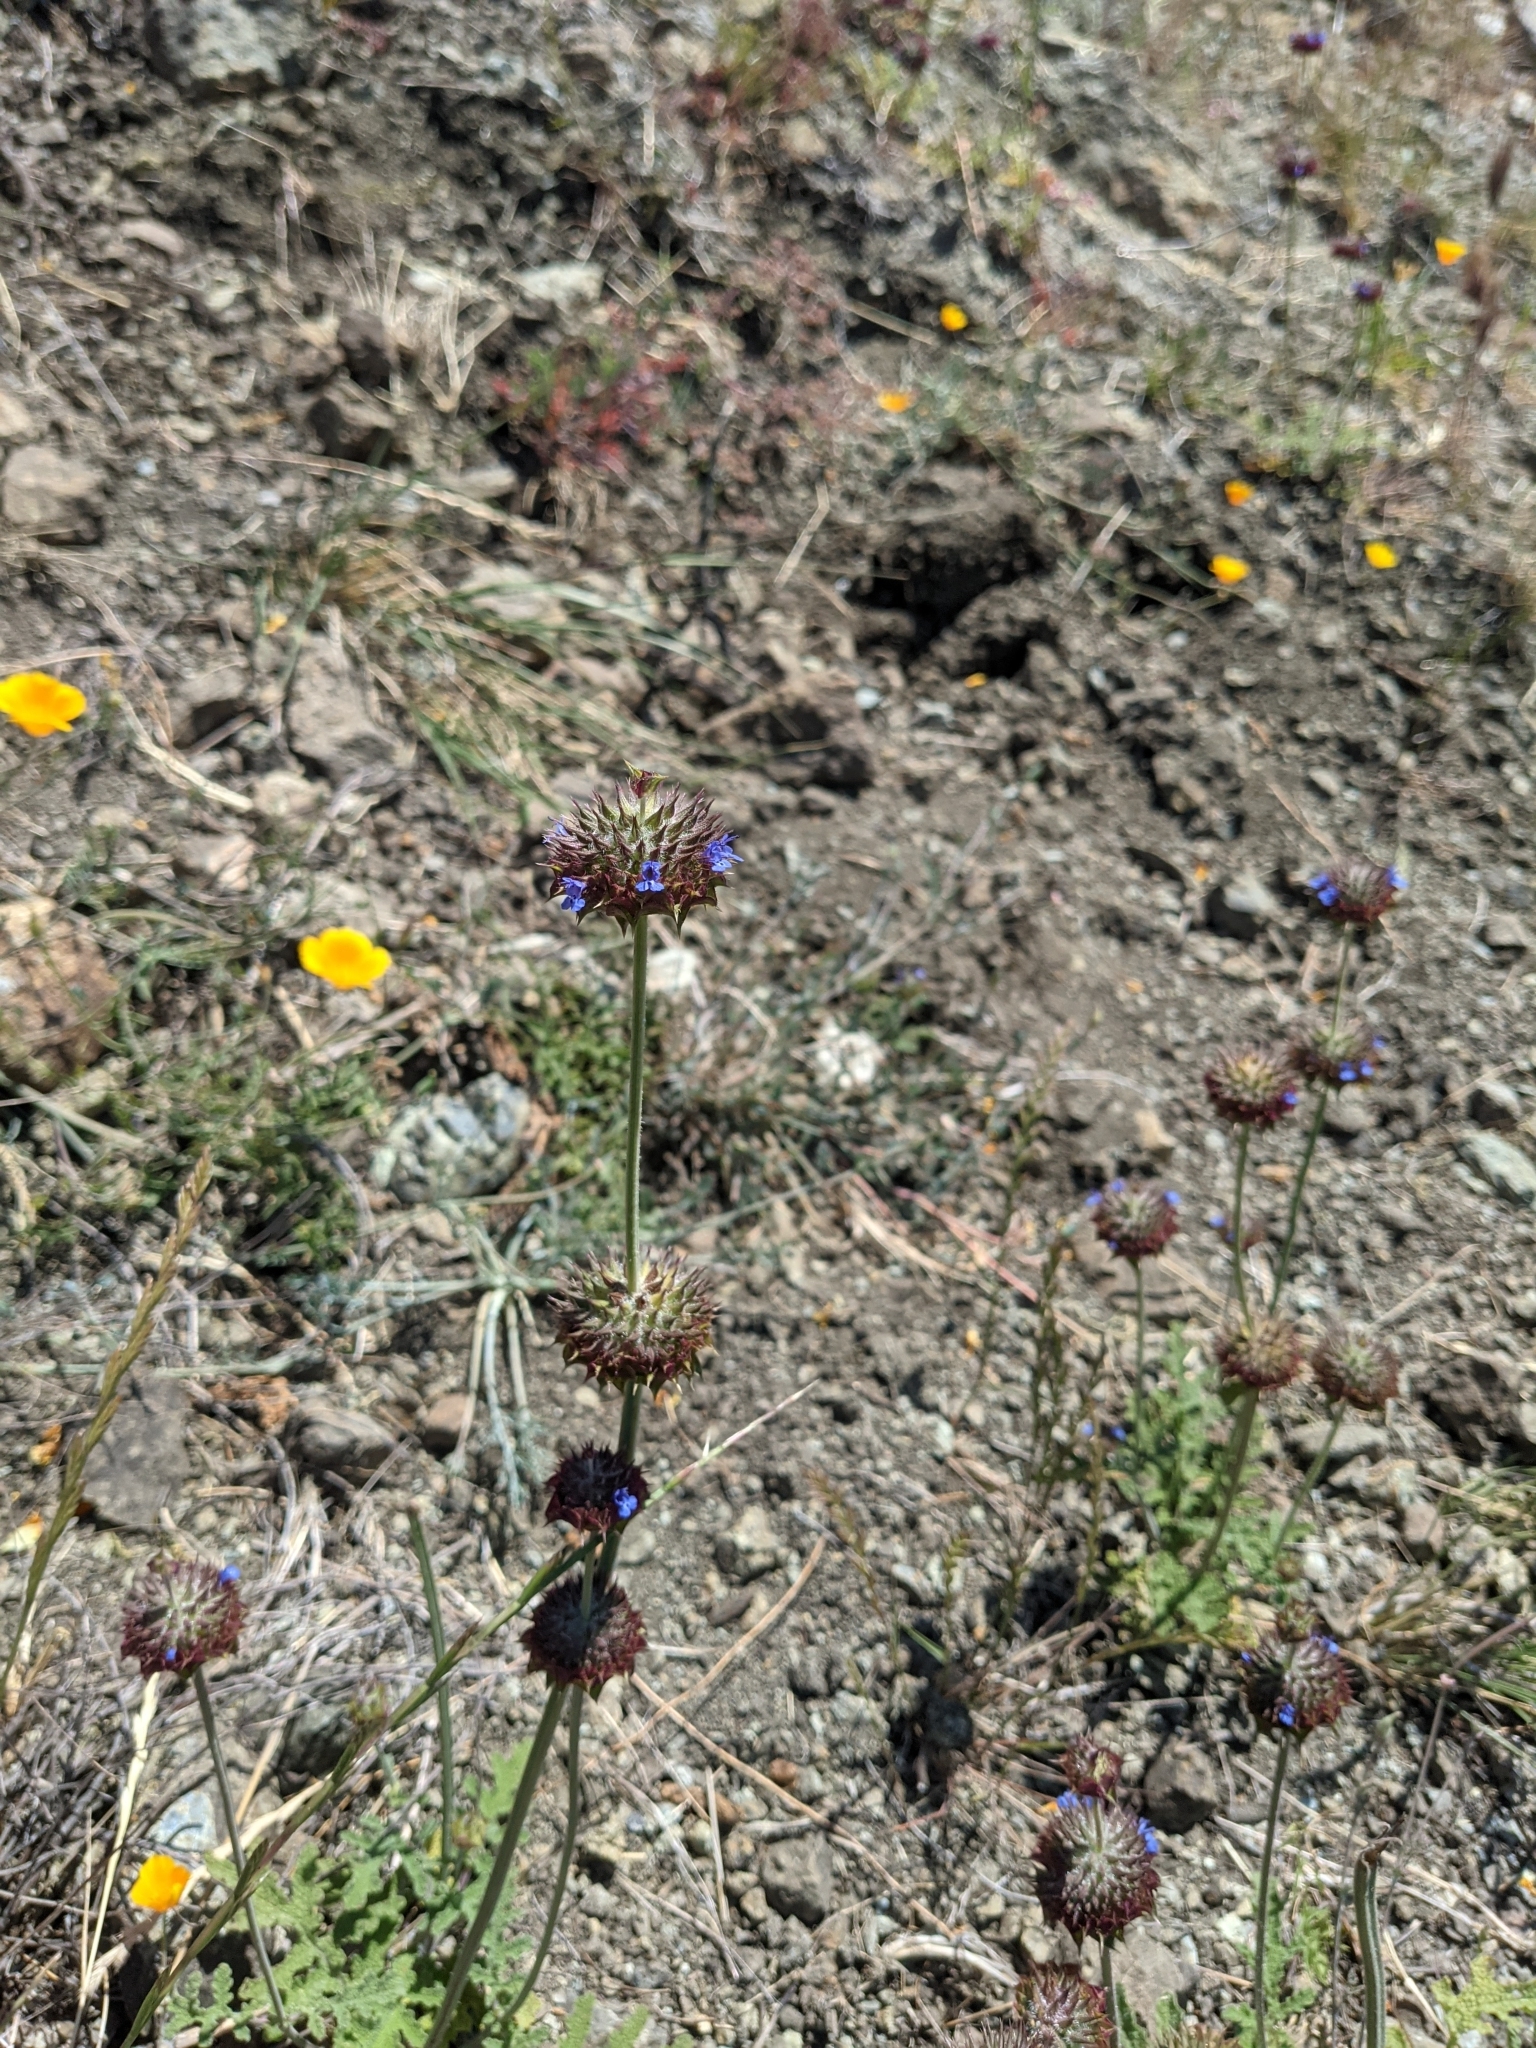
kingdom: Plantae
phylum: Tracheophyta
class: Magnoliopsida
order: Lamiales
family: Lamiaceae
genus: Salvia
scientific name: Salvia columbariae
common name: Chia
